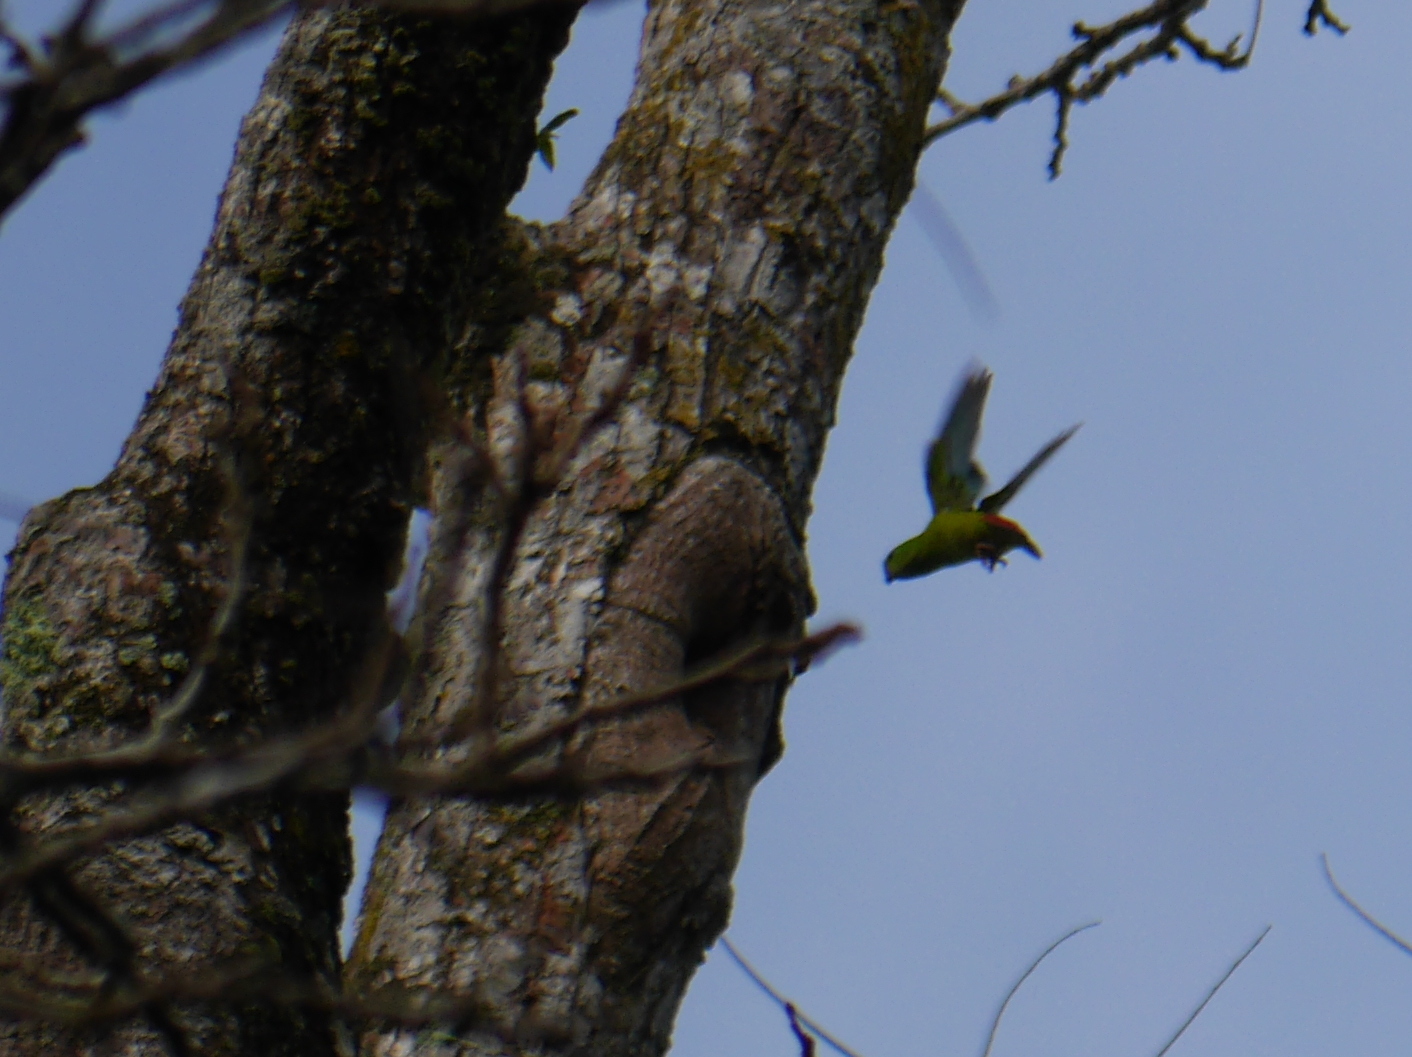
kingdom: Animalia
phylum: Chordata
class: Aves
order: Psittaciformes
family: Psittacidae
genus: Loriculus
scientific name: Loriculus galgulus
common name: Blue-crowned hanging parrot
